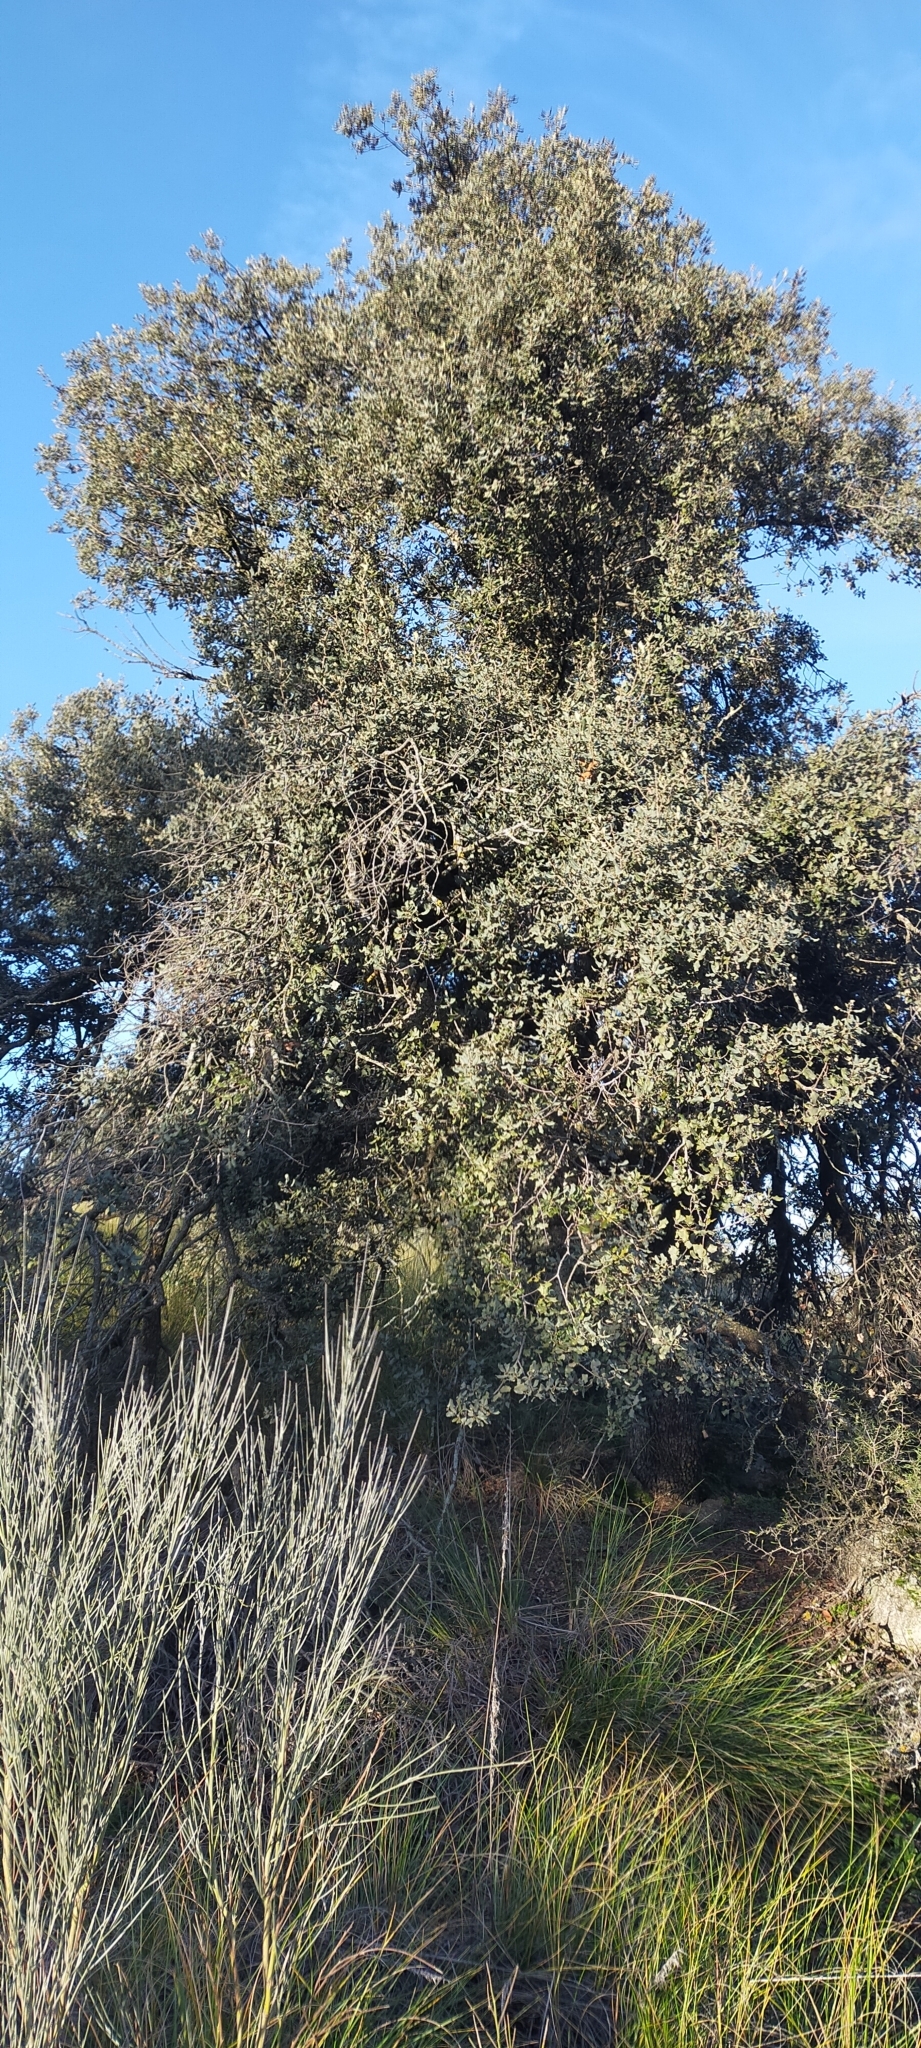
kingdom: Plantae
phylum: Tracheophyta
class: Magnoliopsida
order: Fagales
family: Fagaceae
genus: Quercus
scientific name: Quercus rotundifolia
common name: Holm oak
